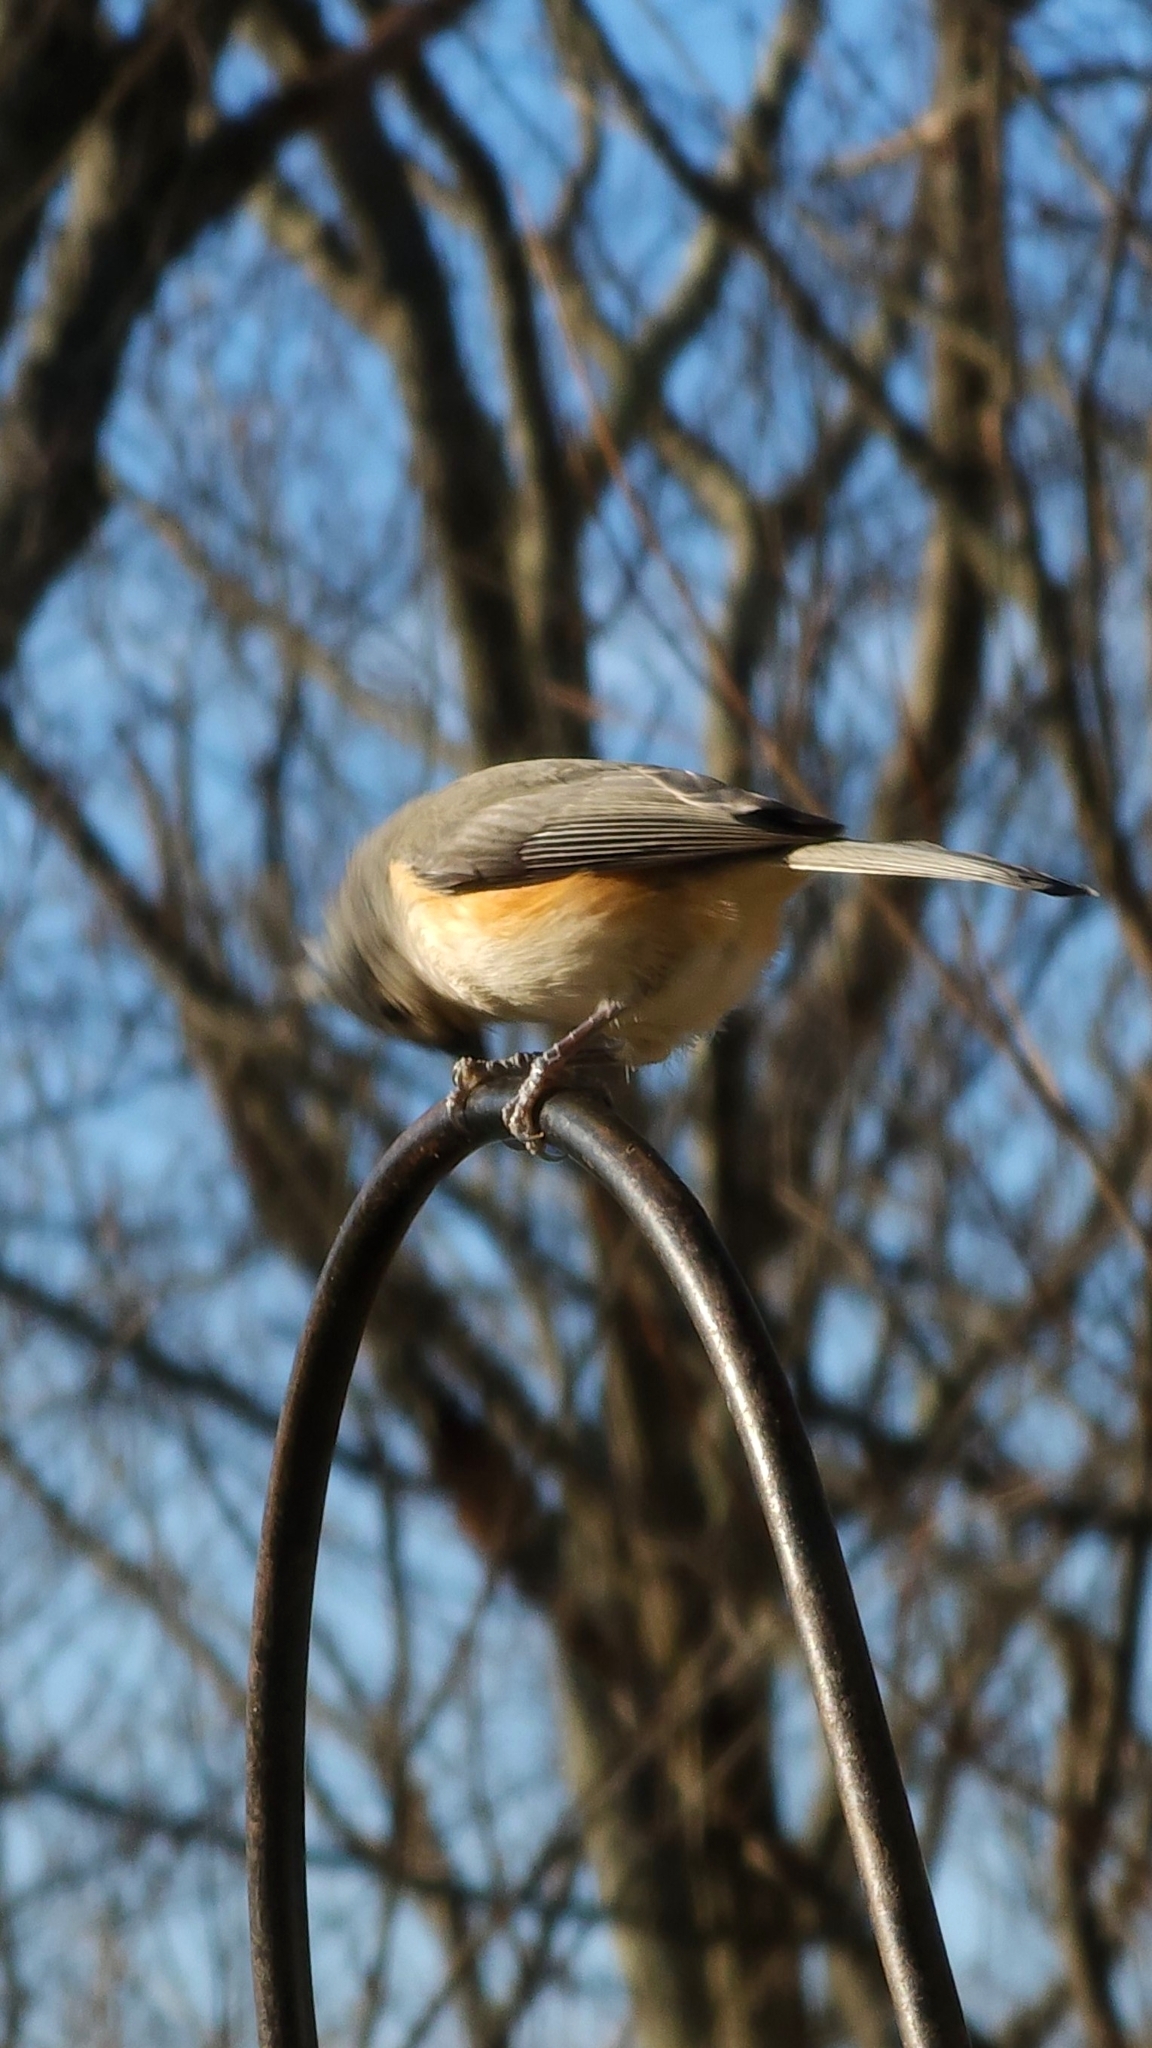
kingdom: Animalia
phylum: Chordata
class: Aves
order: Passeriformes
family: Paridae
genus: Baeolophus
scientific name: Baeolophus bicolor
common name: Tufted titmouse
